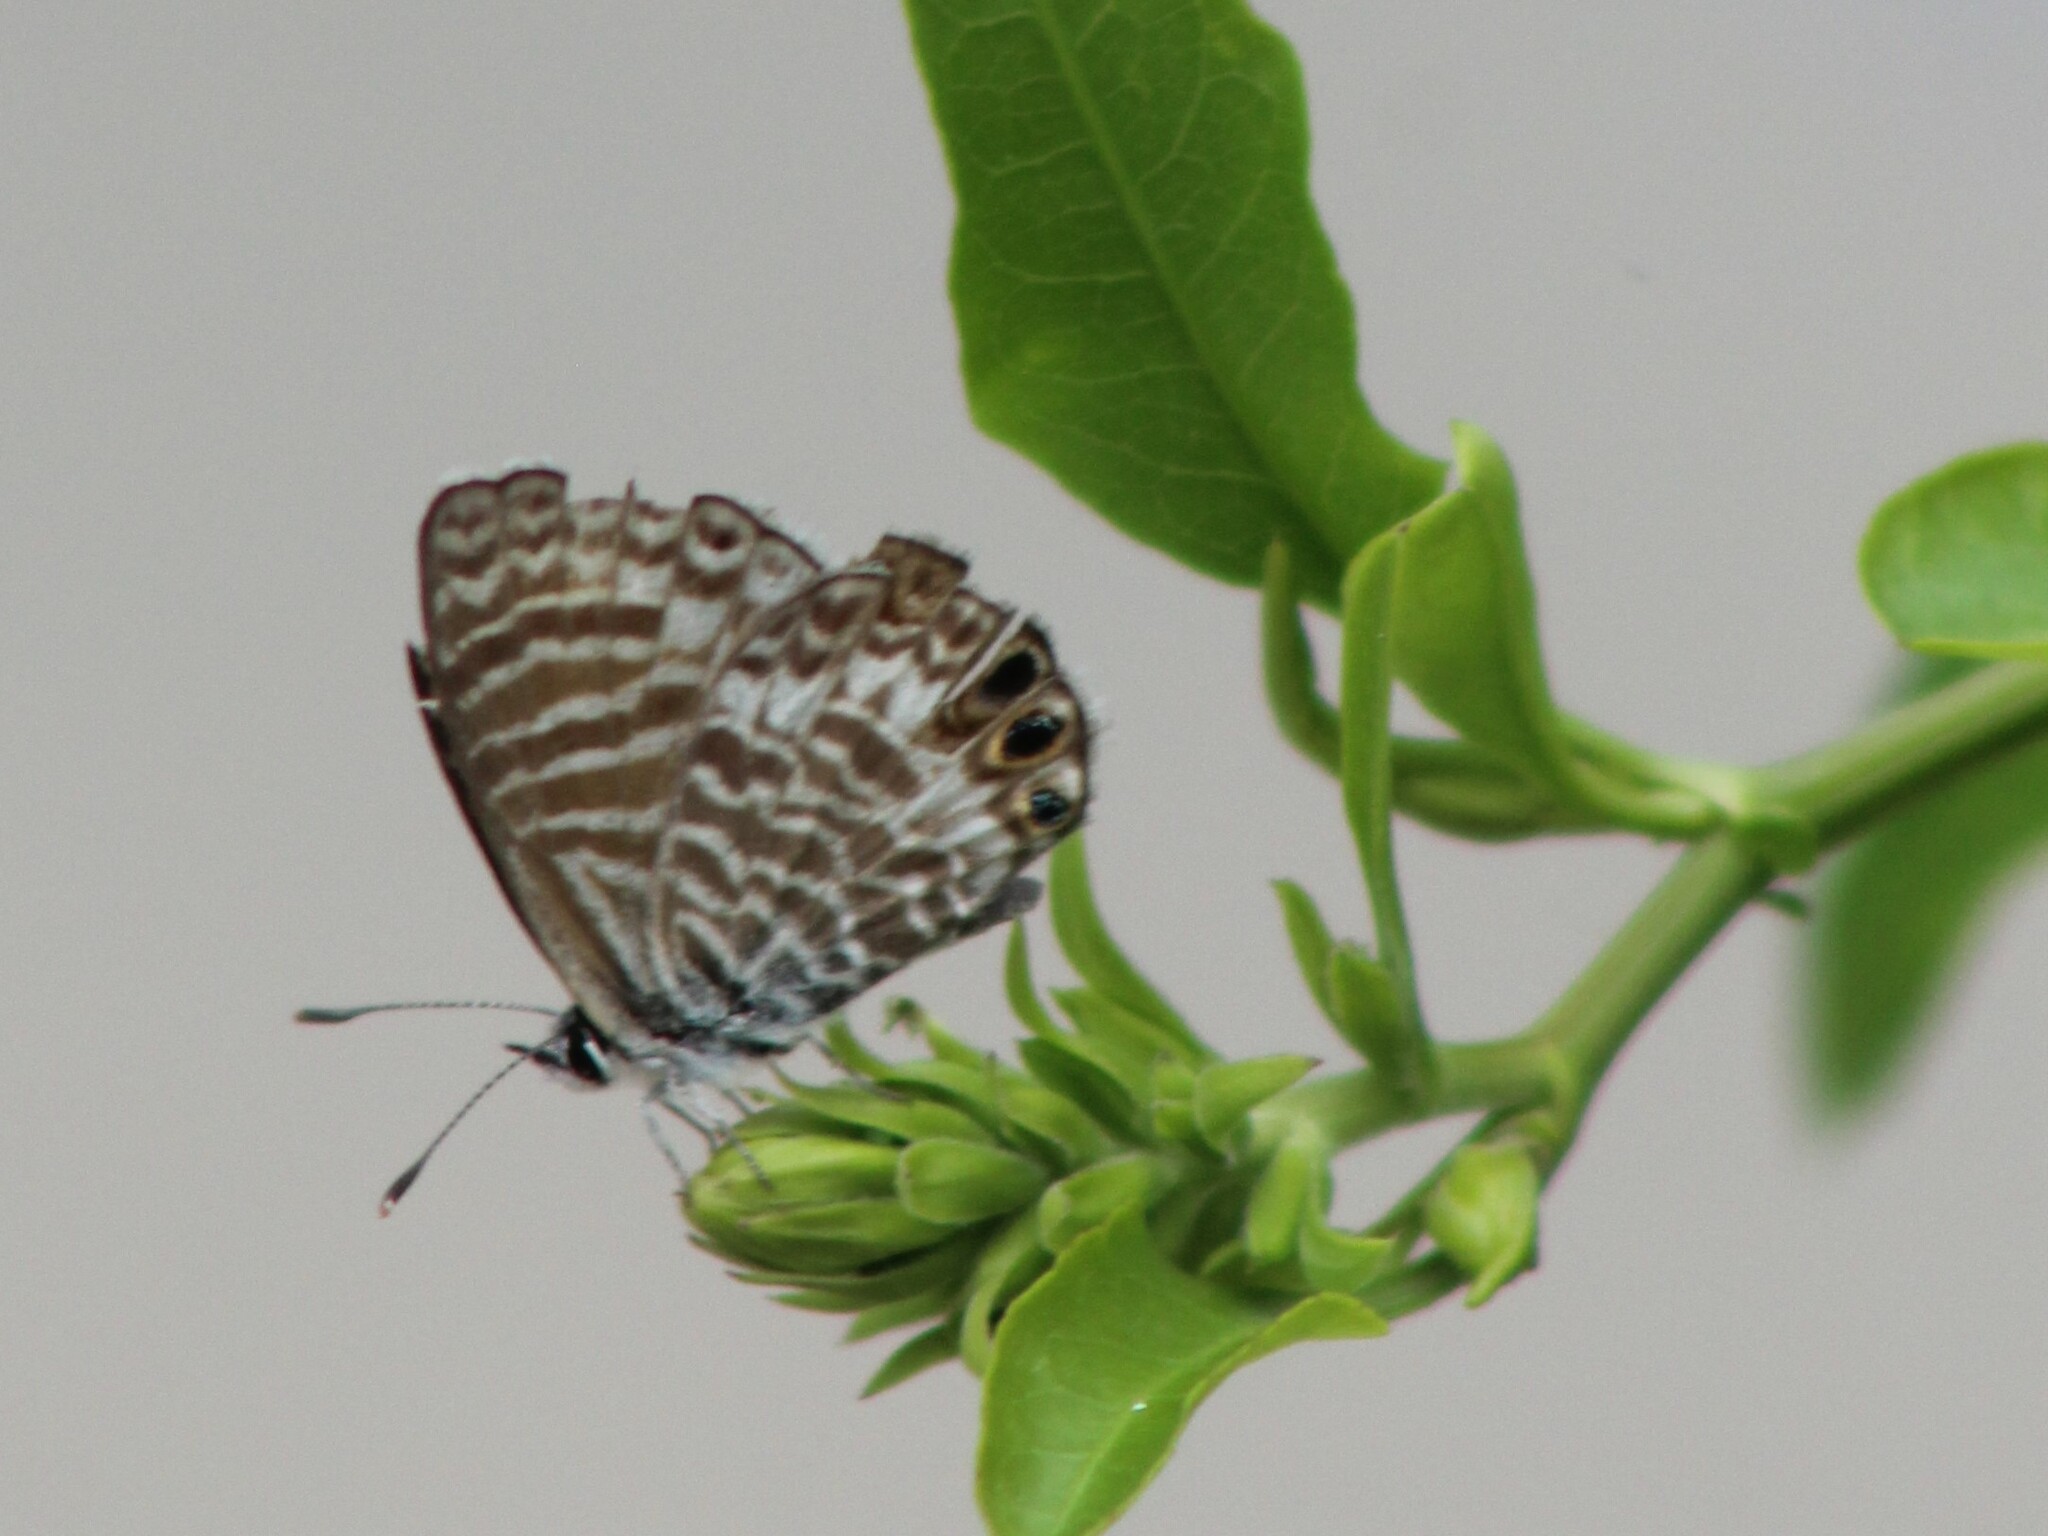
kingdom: Animalia
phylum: Arthropoda
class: Insecta
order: Lepidoptera
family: Lycaenidae
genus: Leptotes
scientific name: Leptotes marina
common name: Marine blue
